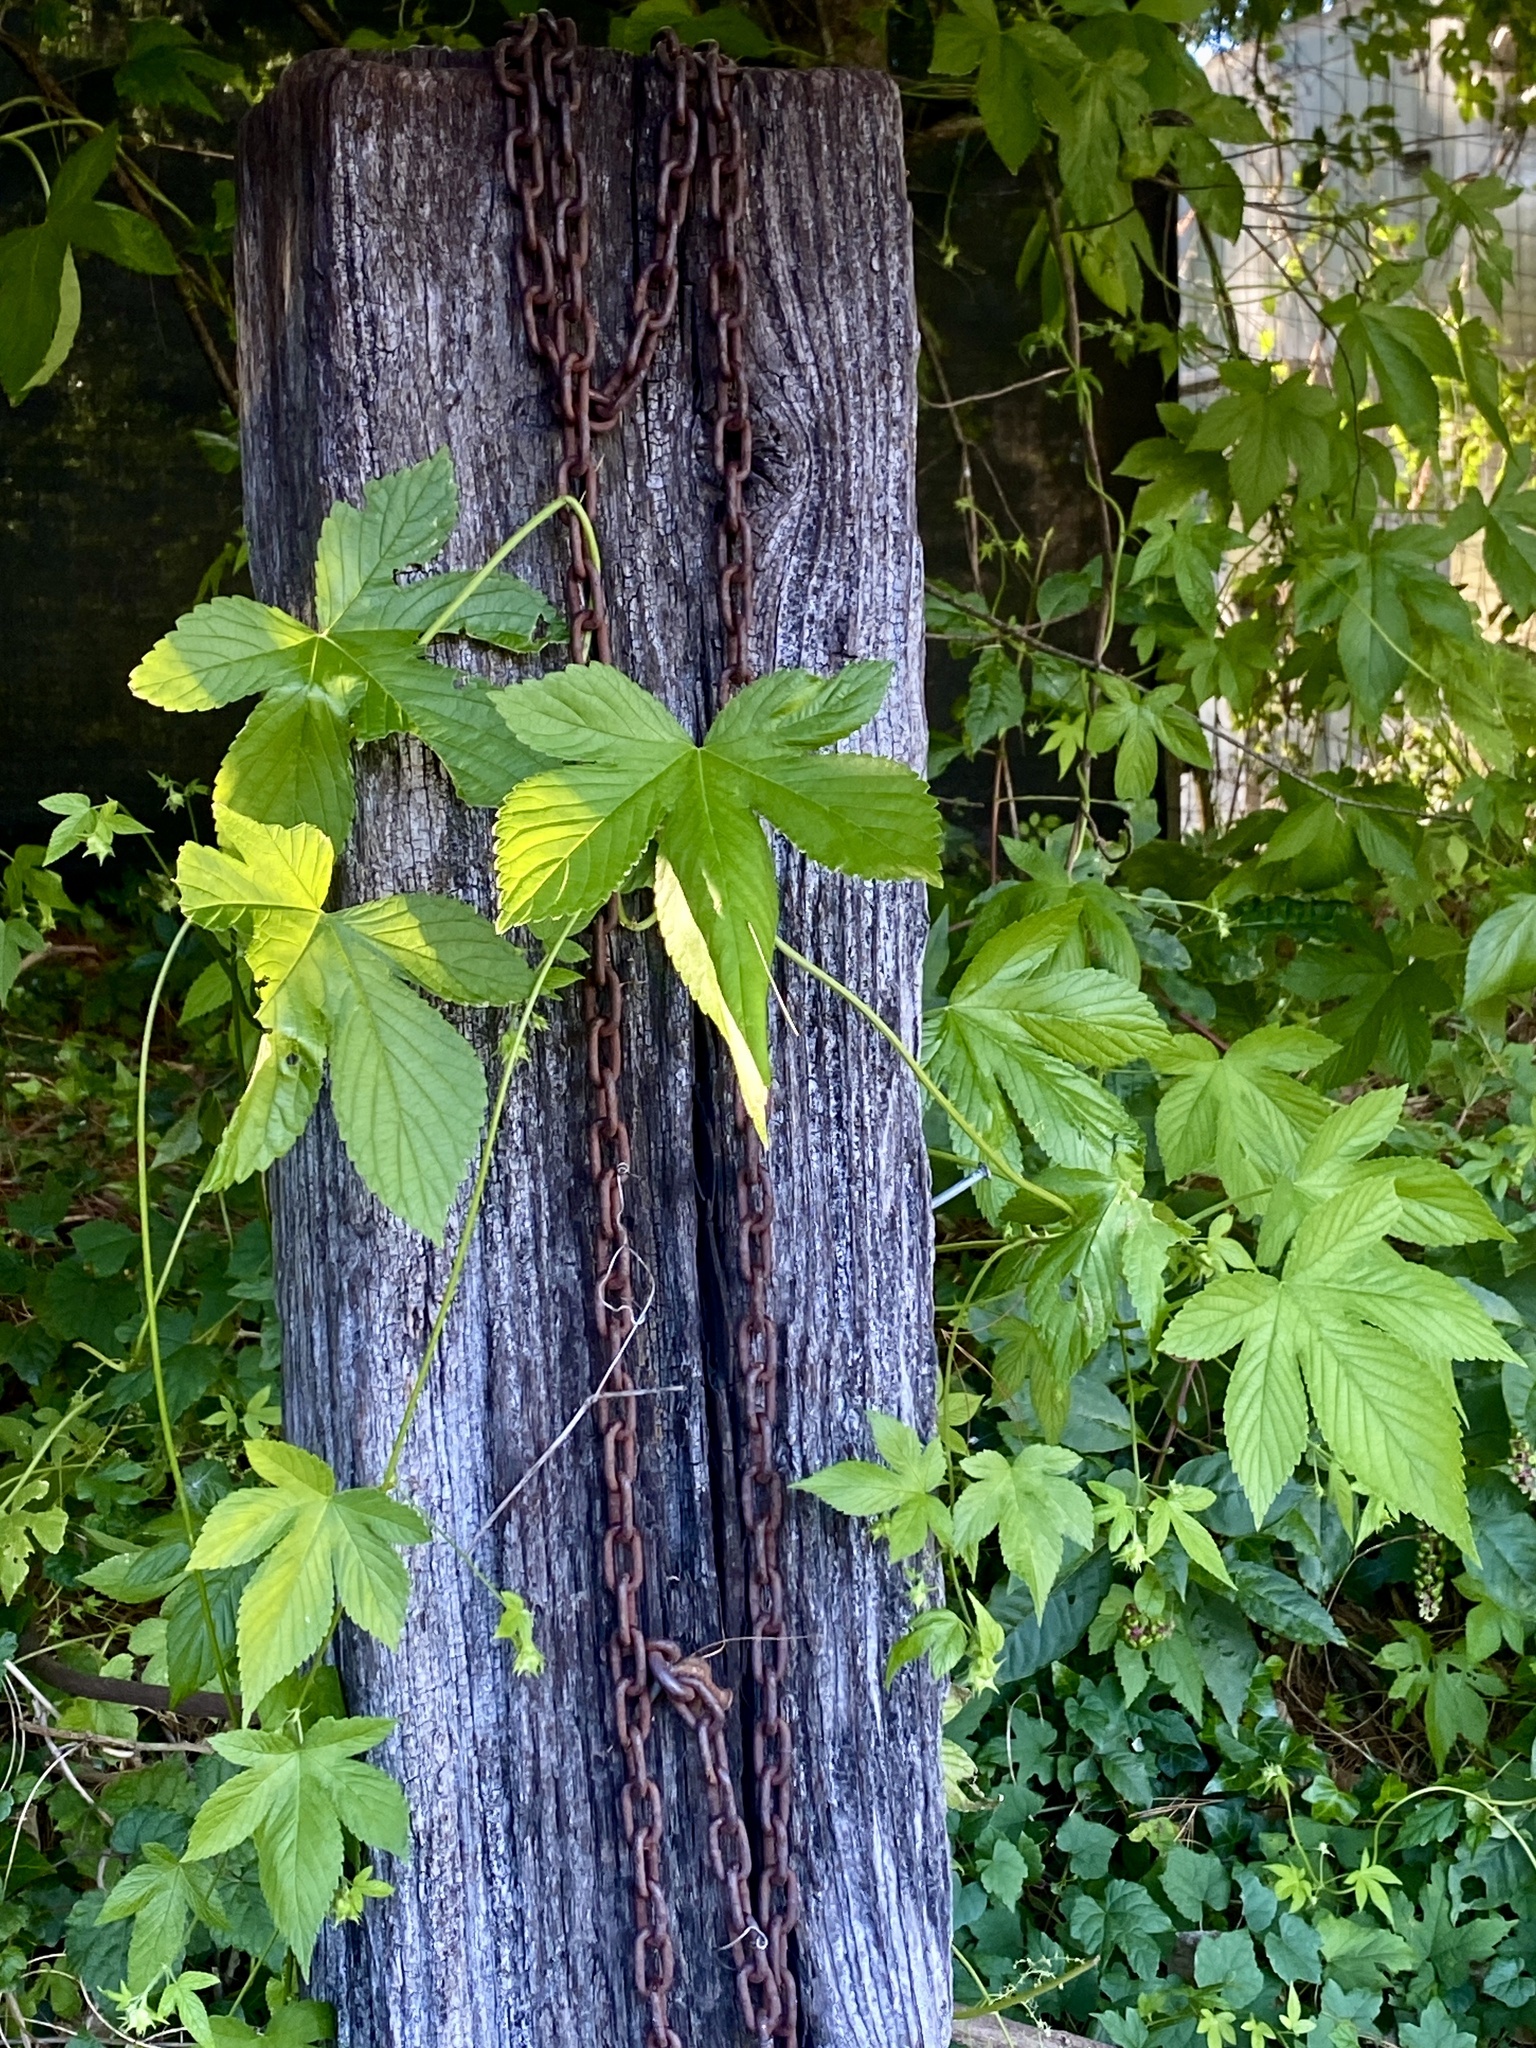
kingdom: Plantae
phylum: Tracheophyta
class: Magnoliopsida
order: Rosales
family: Cannabaceae
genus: Humulus
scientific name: Humulus scandens
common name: Japanese hop
